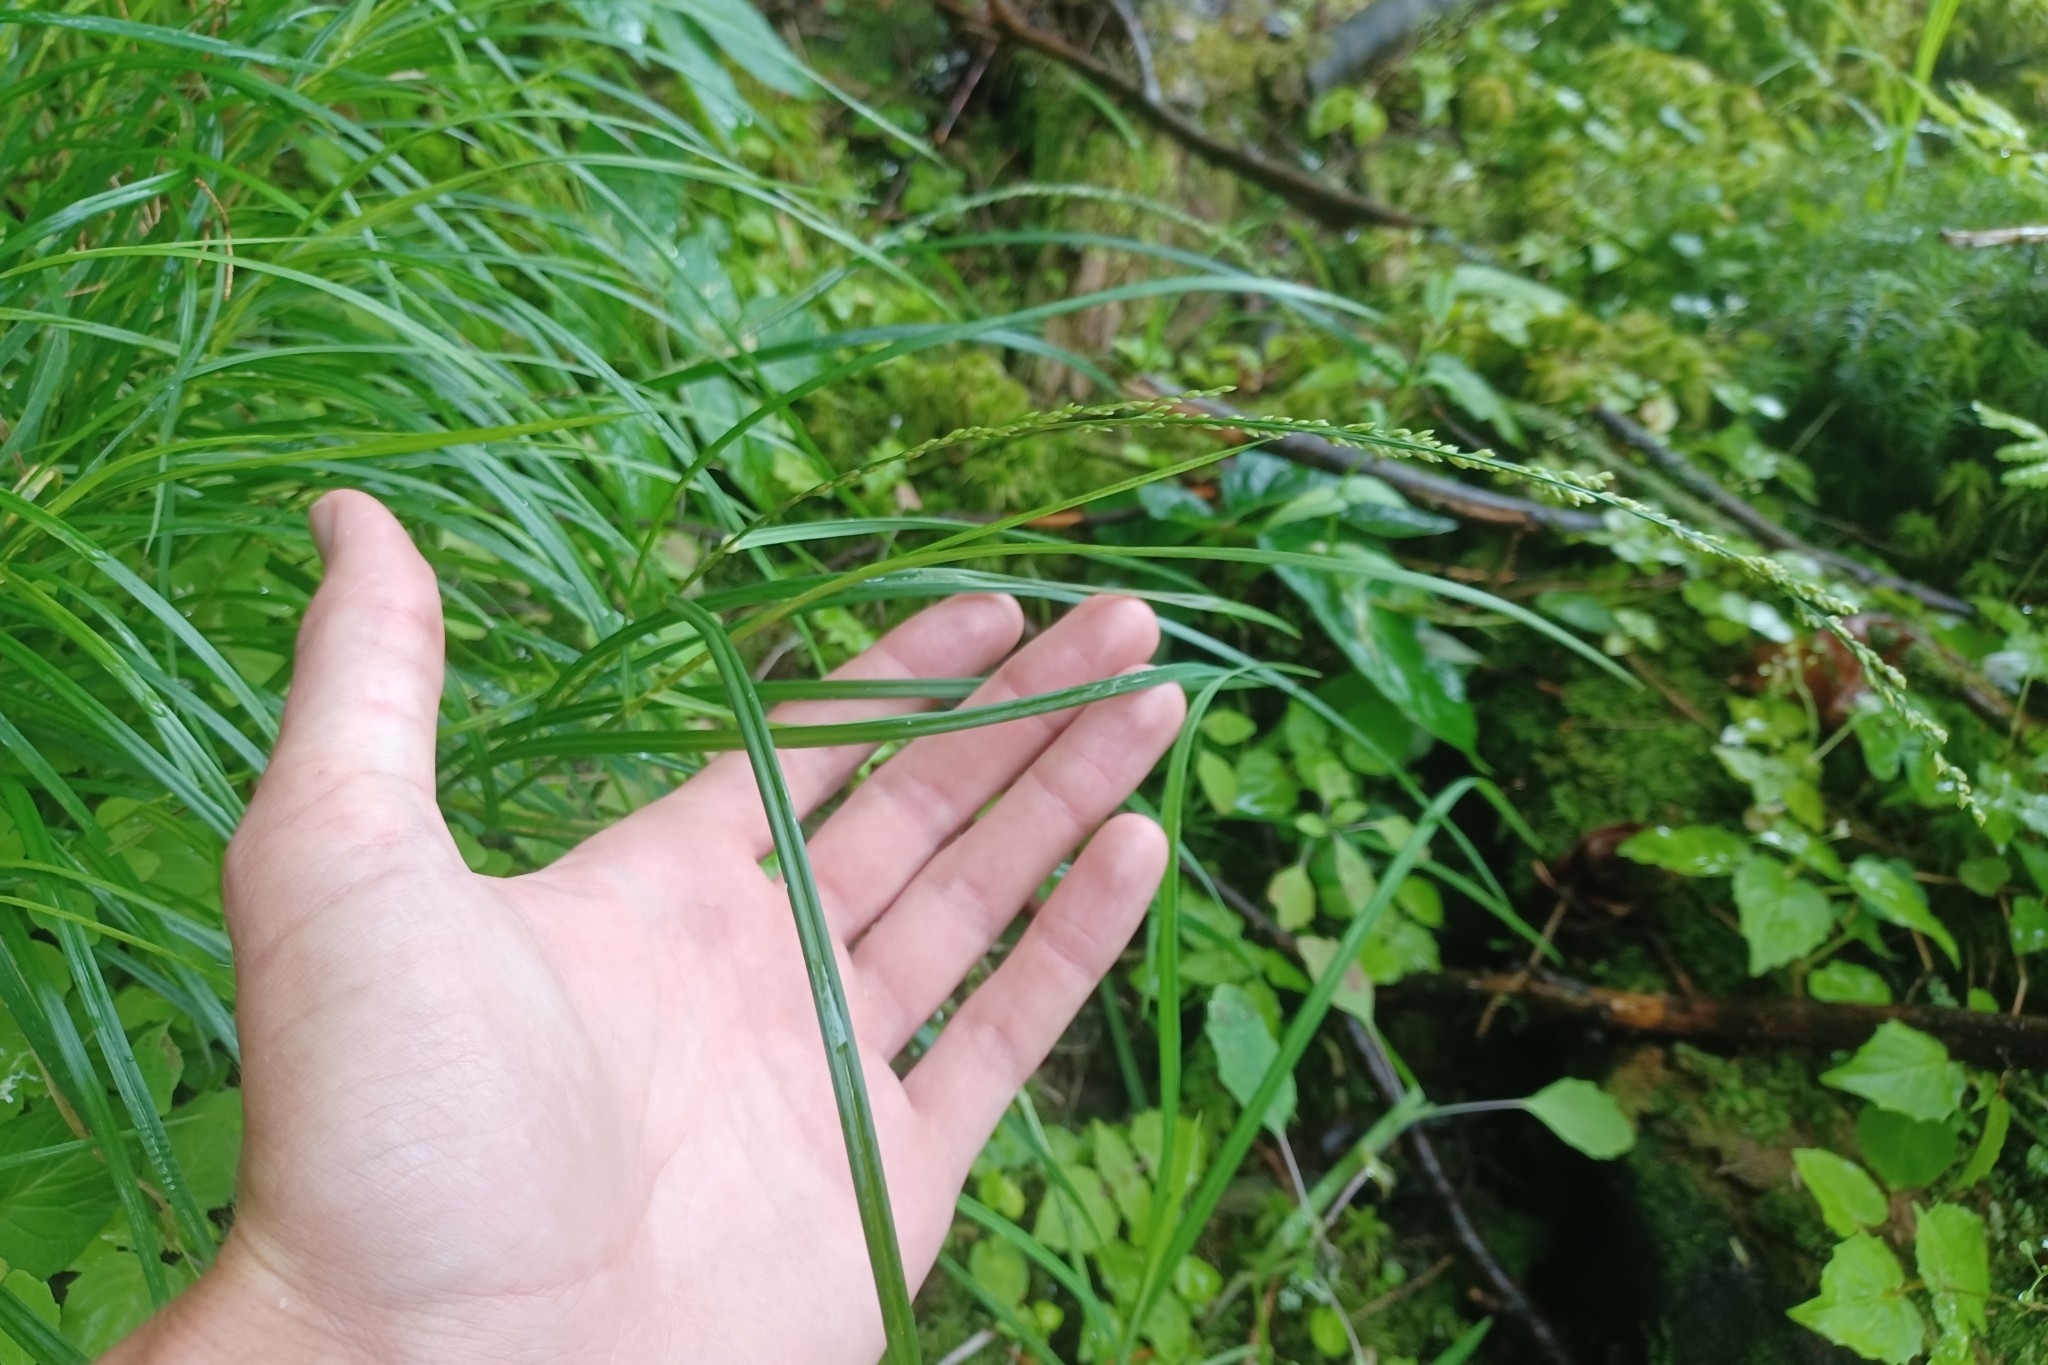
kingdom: Plantae
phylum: Tracheophyta
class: Liliopsida
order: Poales
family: Poaceae
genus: Glyceria
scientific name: Glyceria melicaria
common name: Long mannagrass
